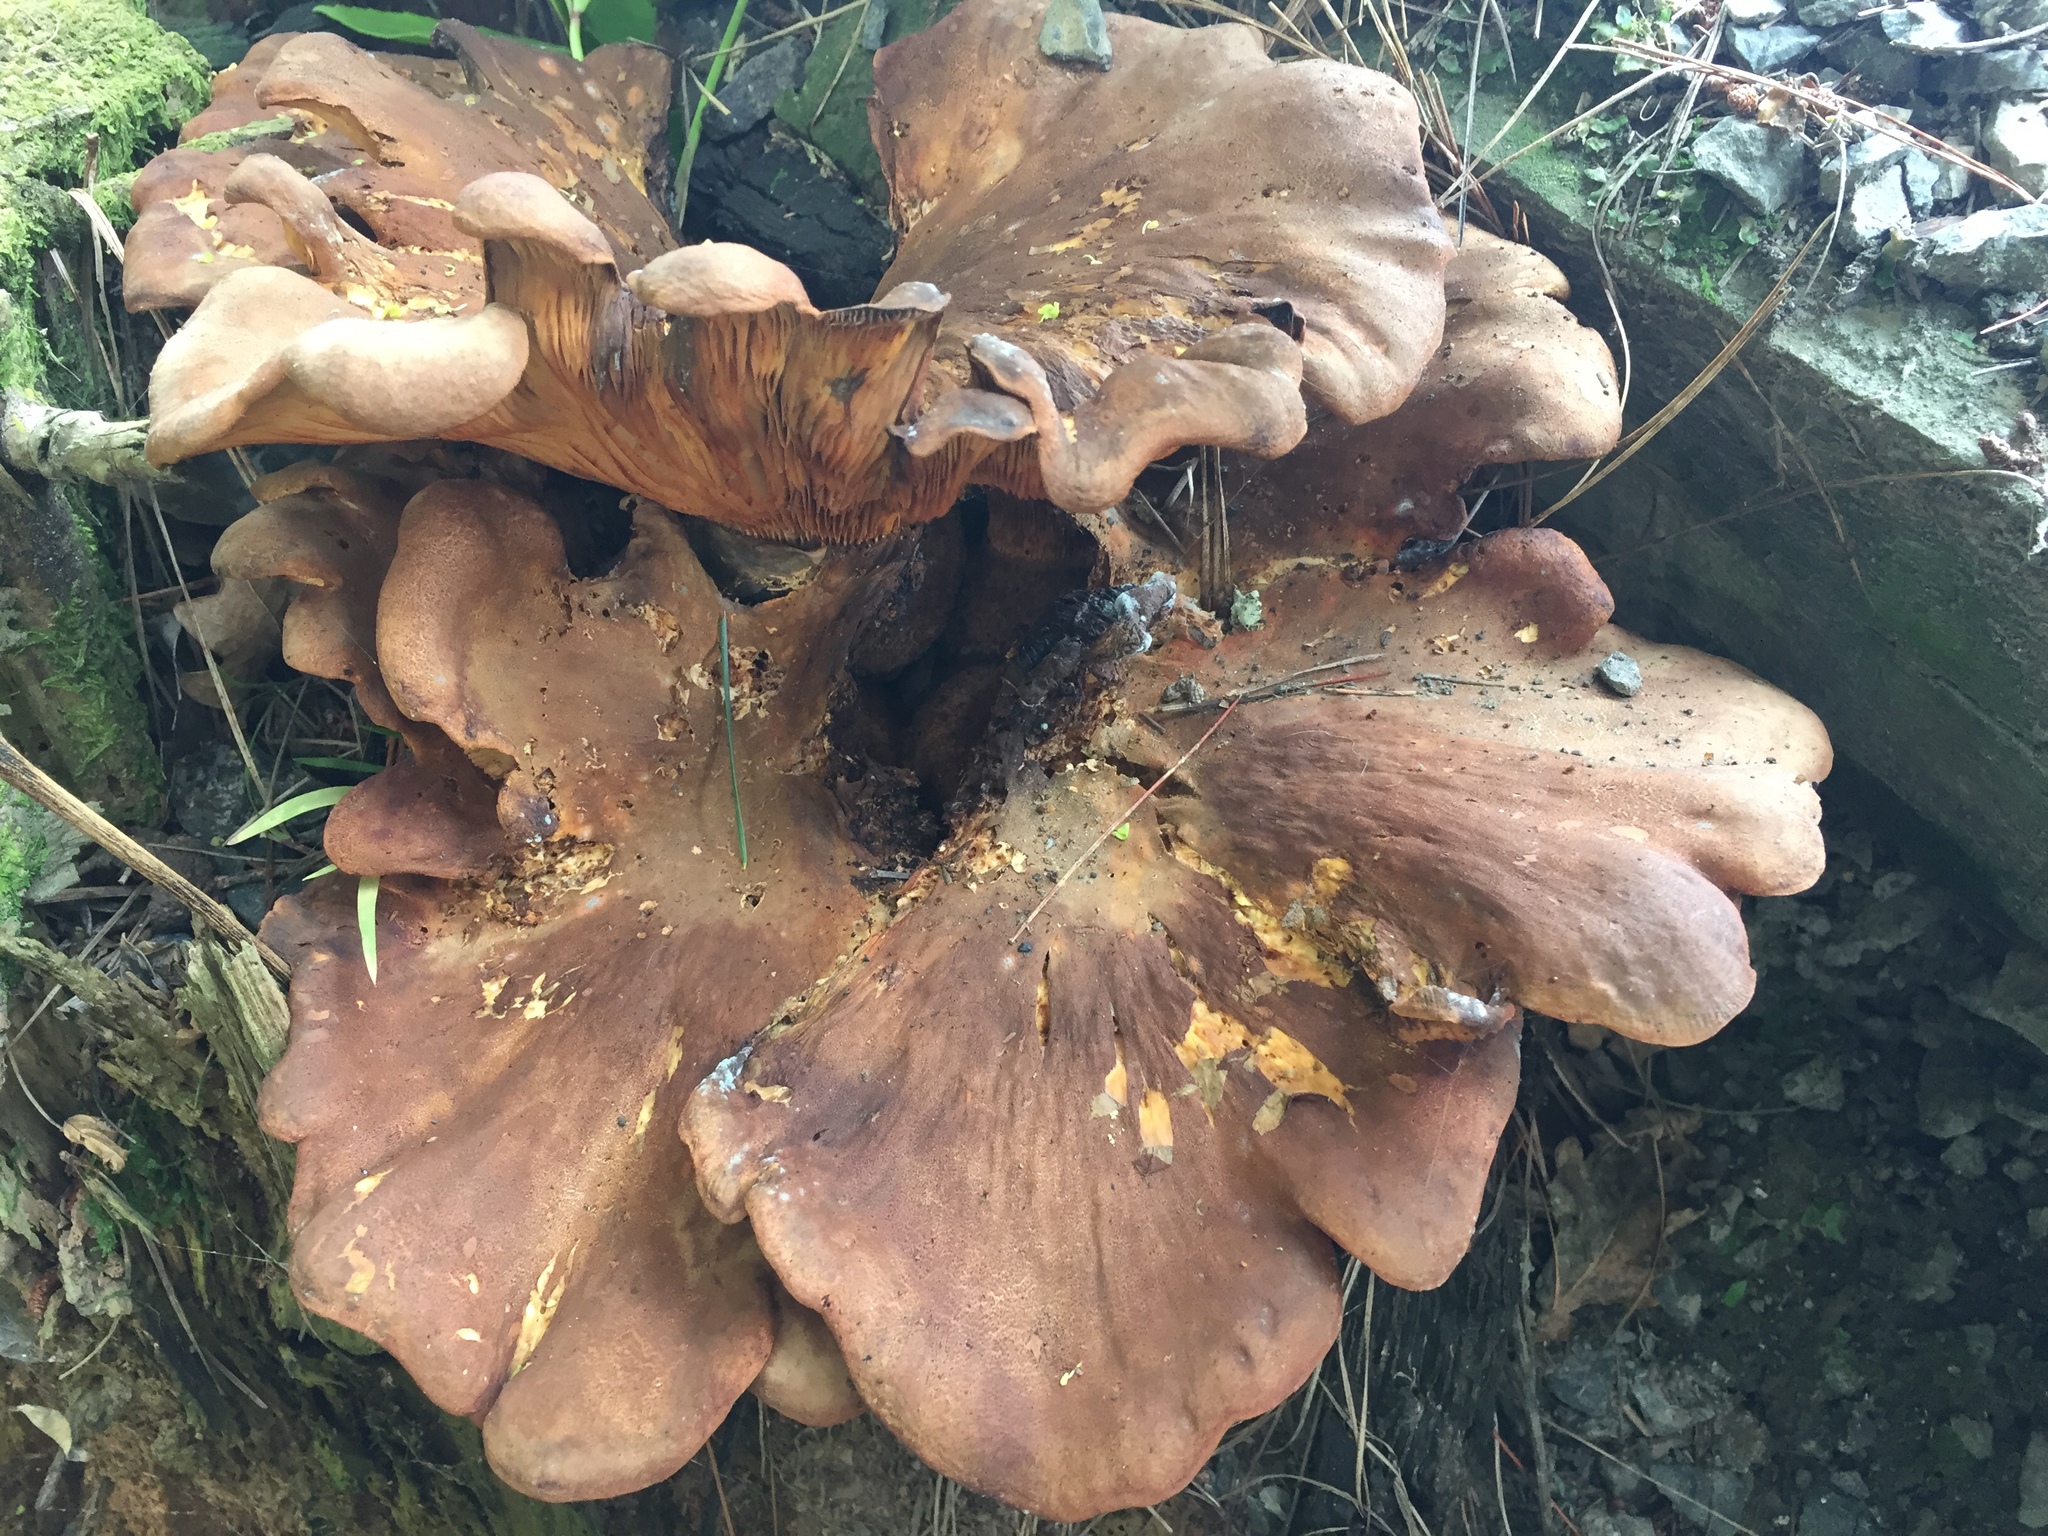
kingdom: Fungi
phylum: Basidiomycota
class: Agaricomycetes
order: Boletales
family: Tapinellaceae
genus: Tapinella
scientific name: Tapinella panuoides
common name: Oyster rollrim
